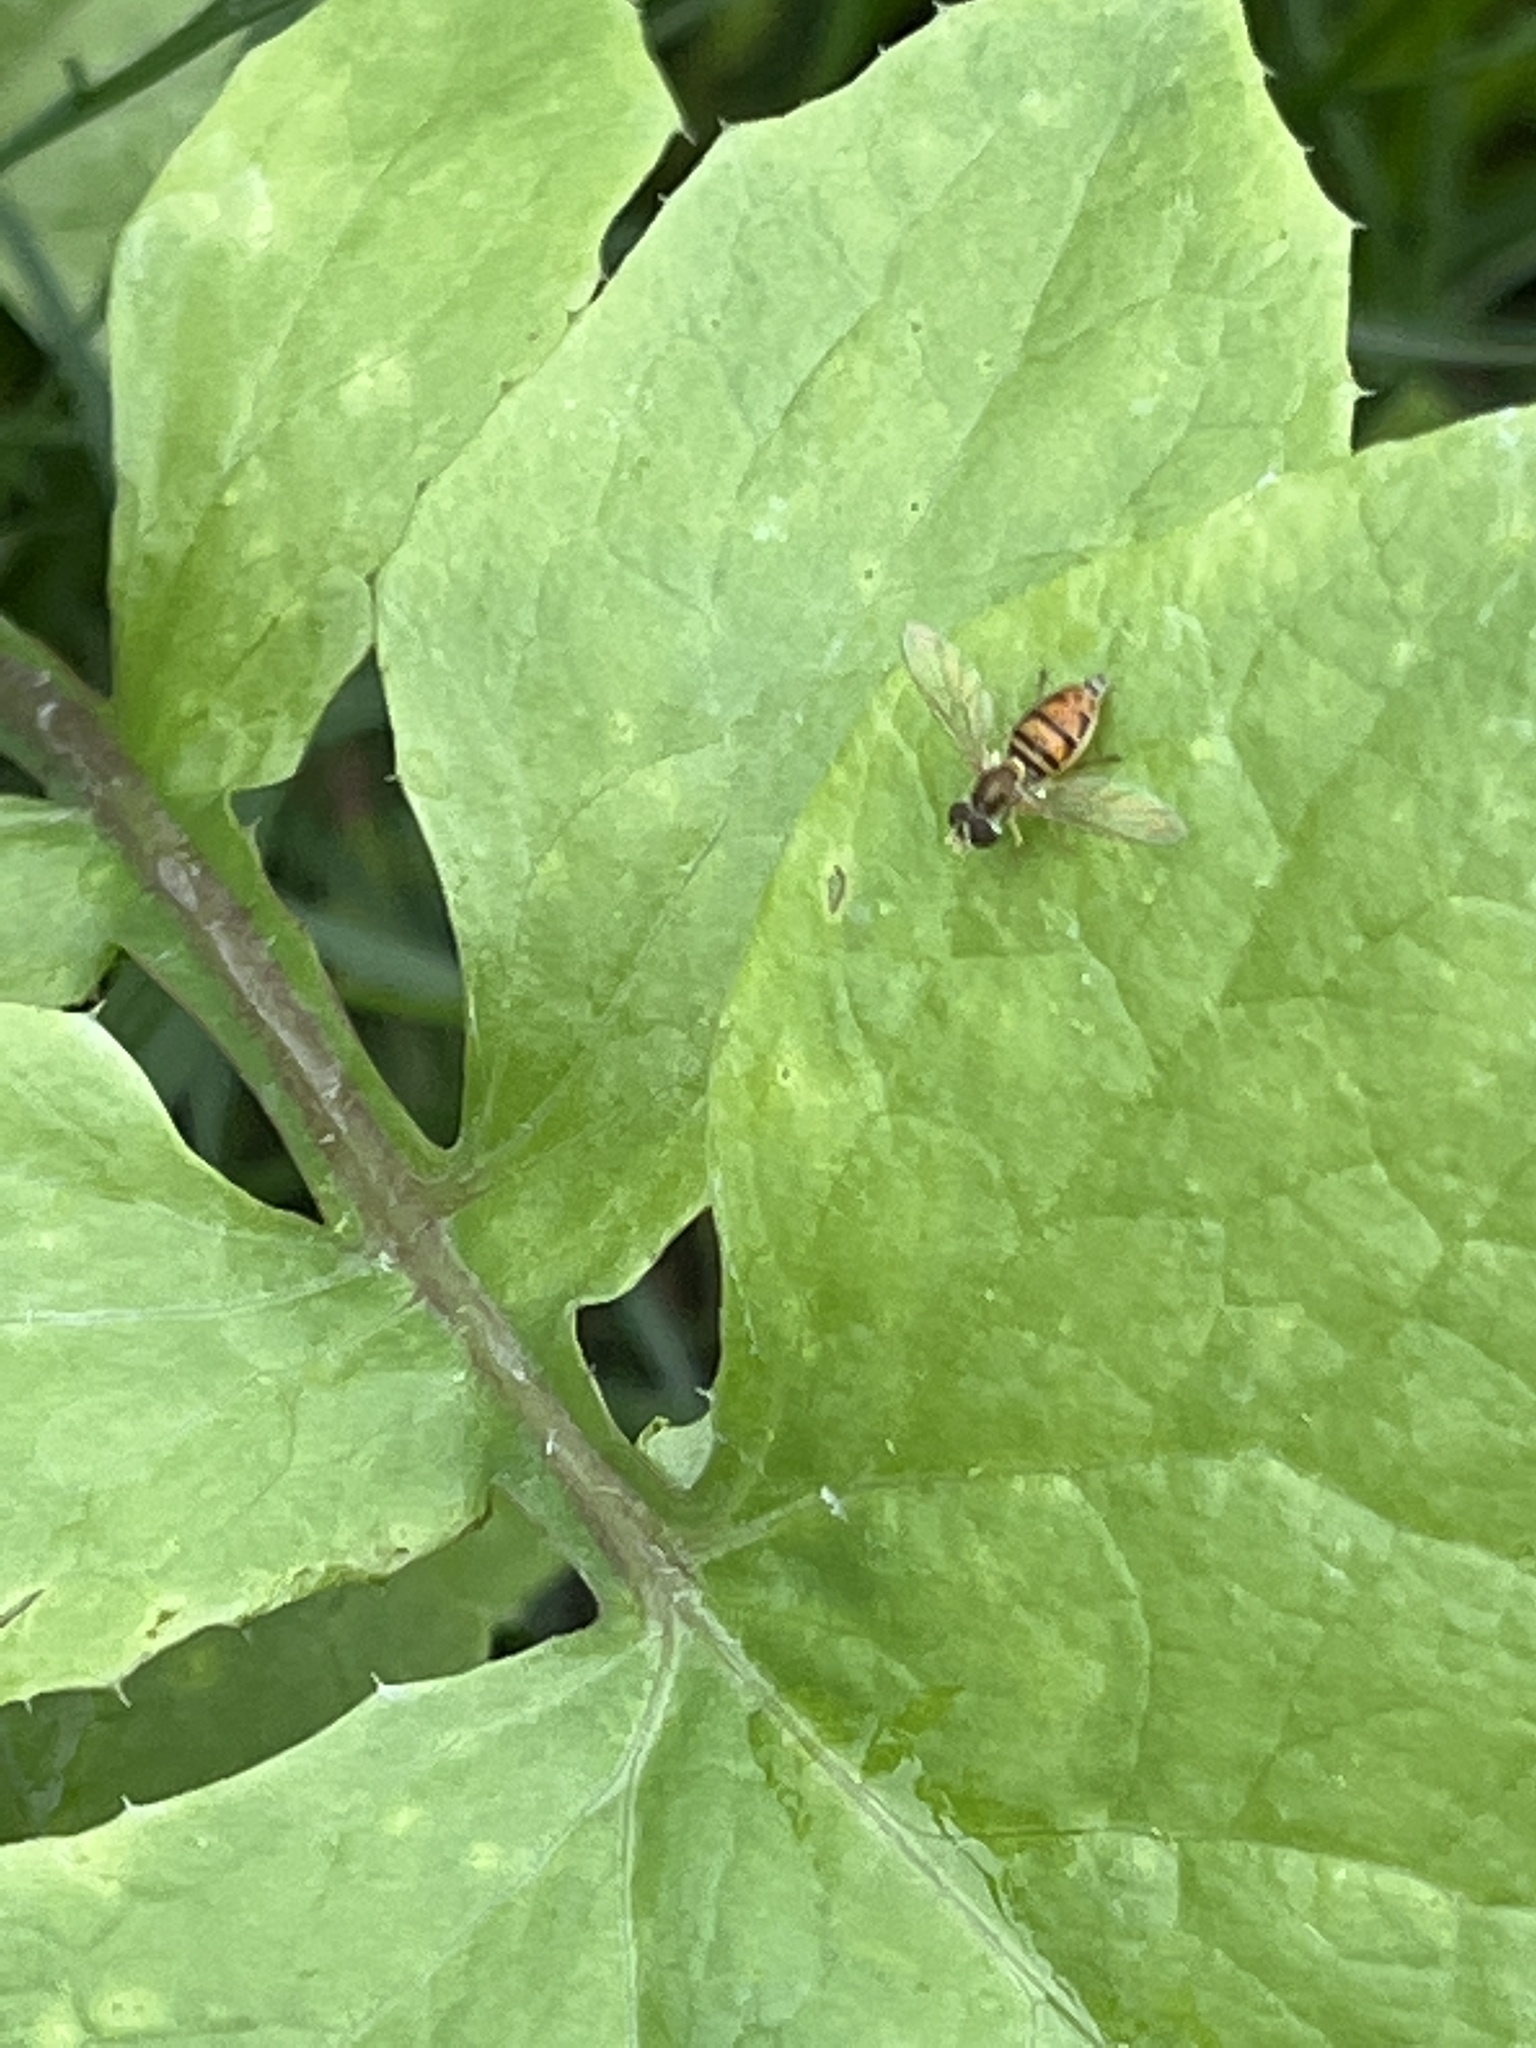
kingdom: Animalia
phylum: Arthropoda
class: Insecta
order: Diptera
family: Syrphidae
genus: Toxomerus
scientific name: Toxomerus marginatus
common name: Syrphid fly
